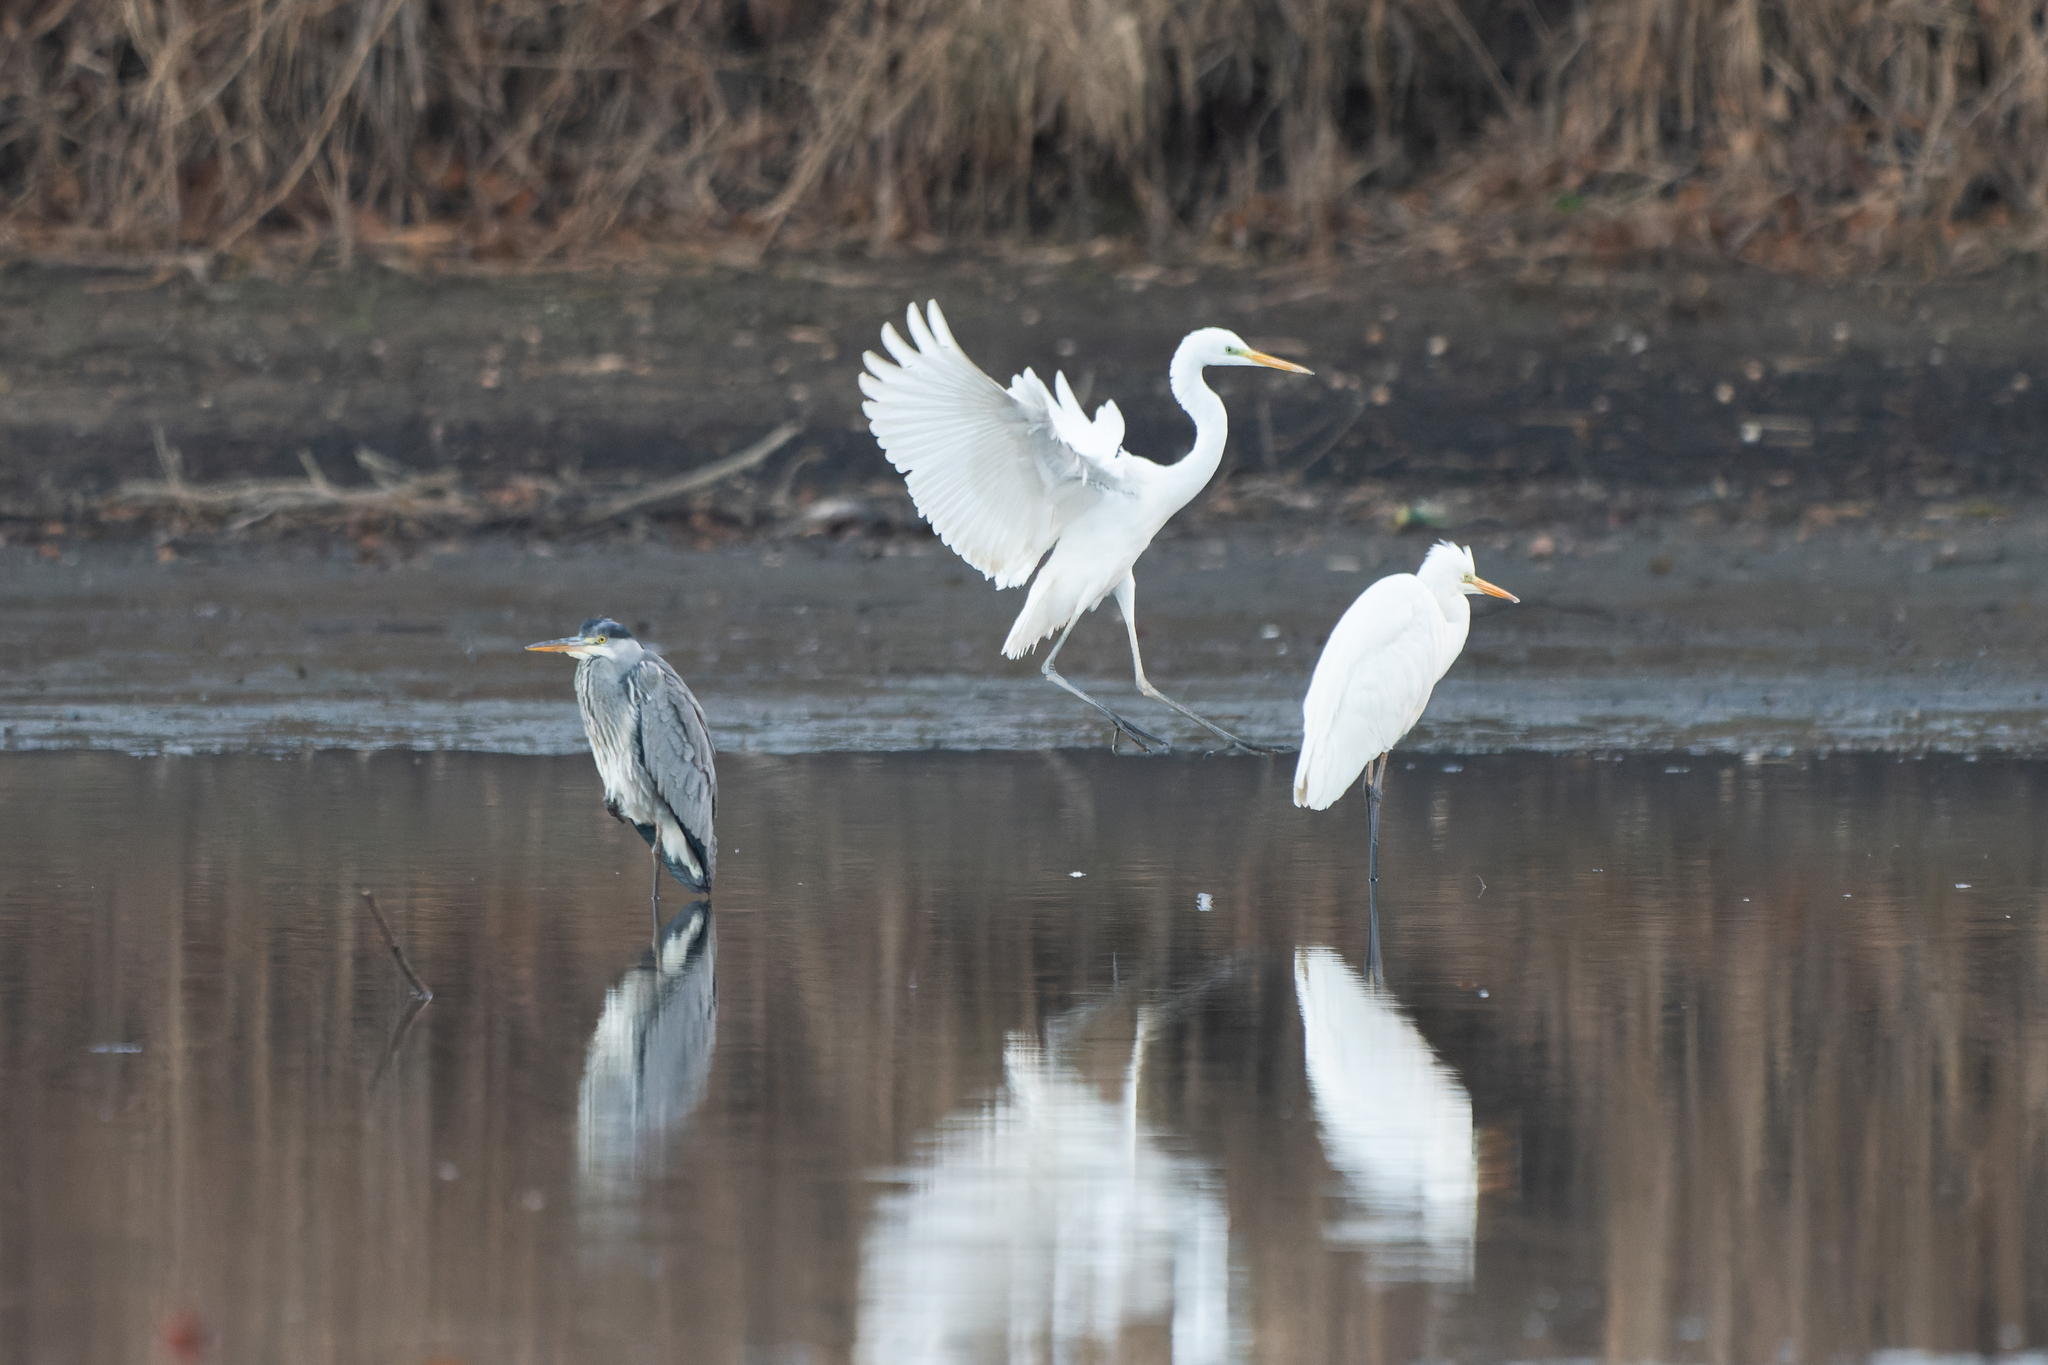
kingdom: Animalia
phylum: Chordata
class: Aves
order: Pelecaniformes
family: Ardeidae
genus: Ardea
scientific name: Ardea alba
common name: Great egret
